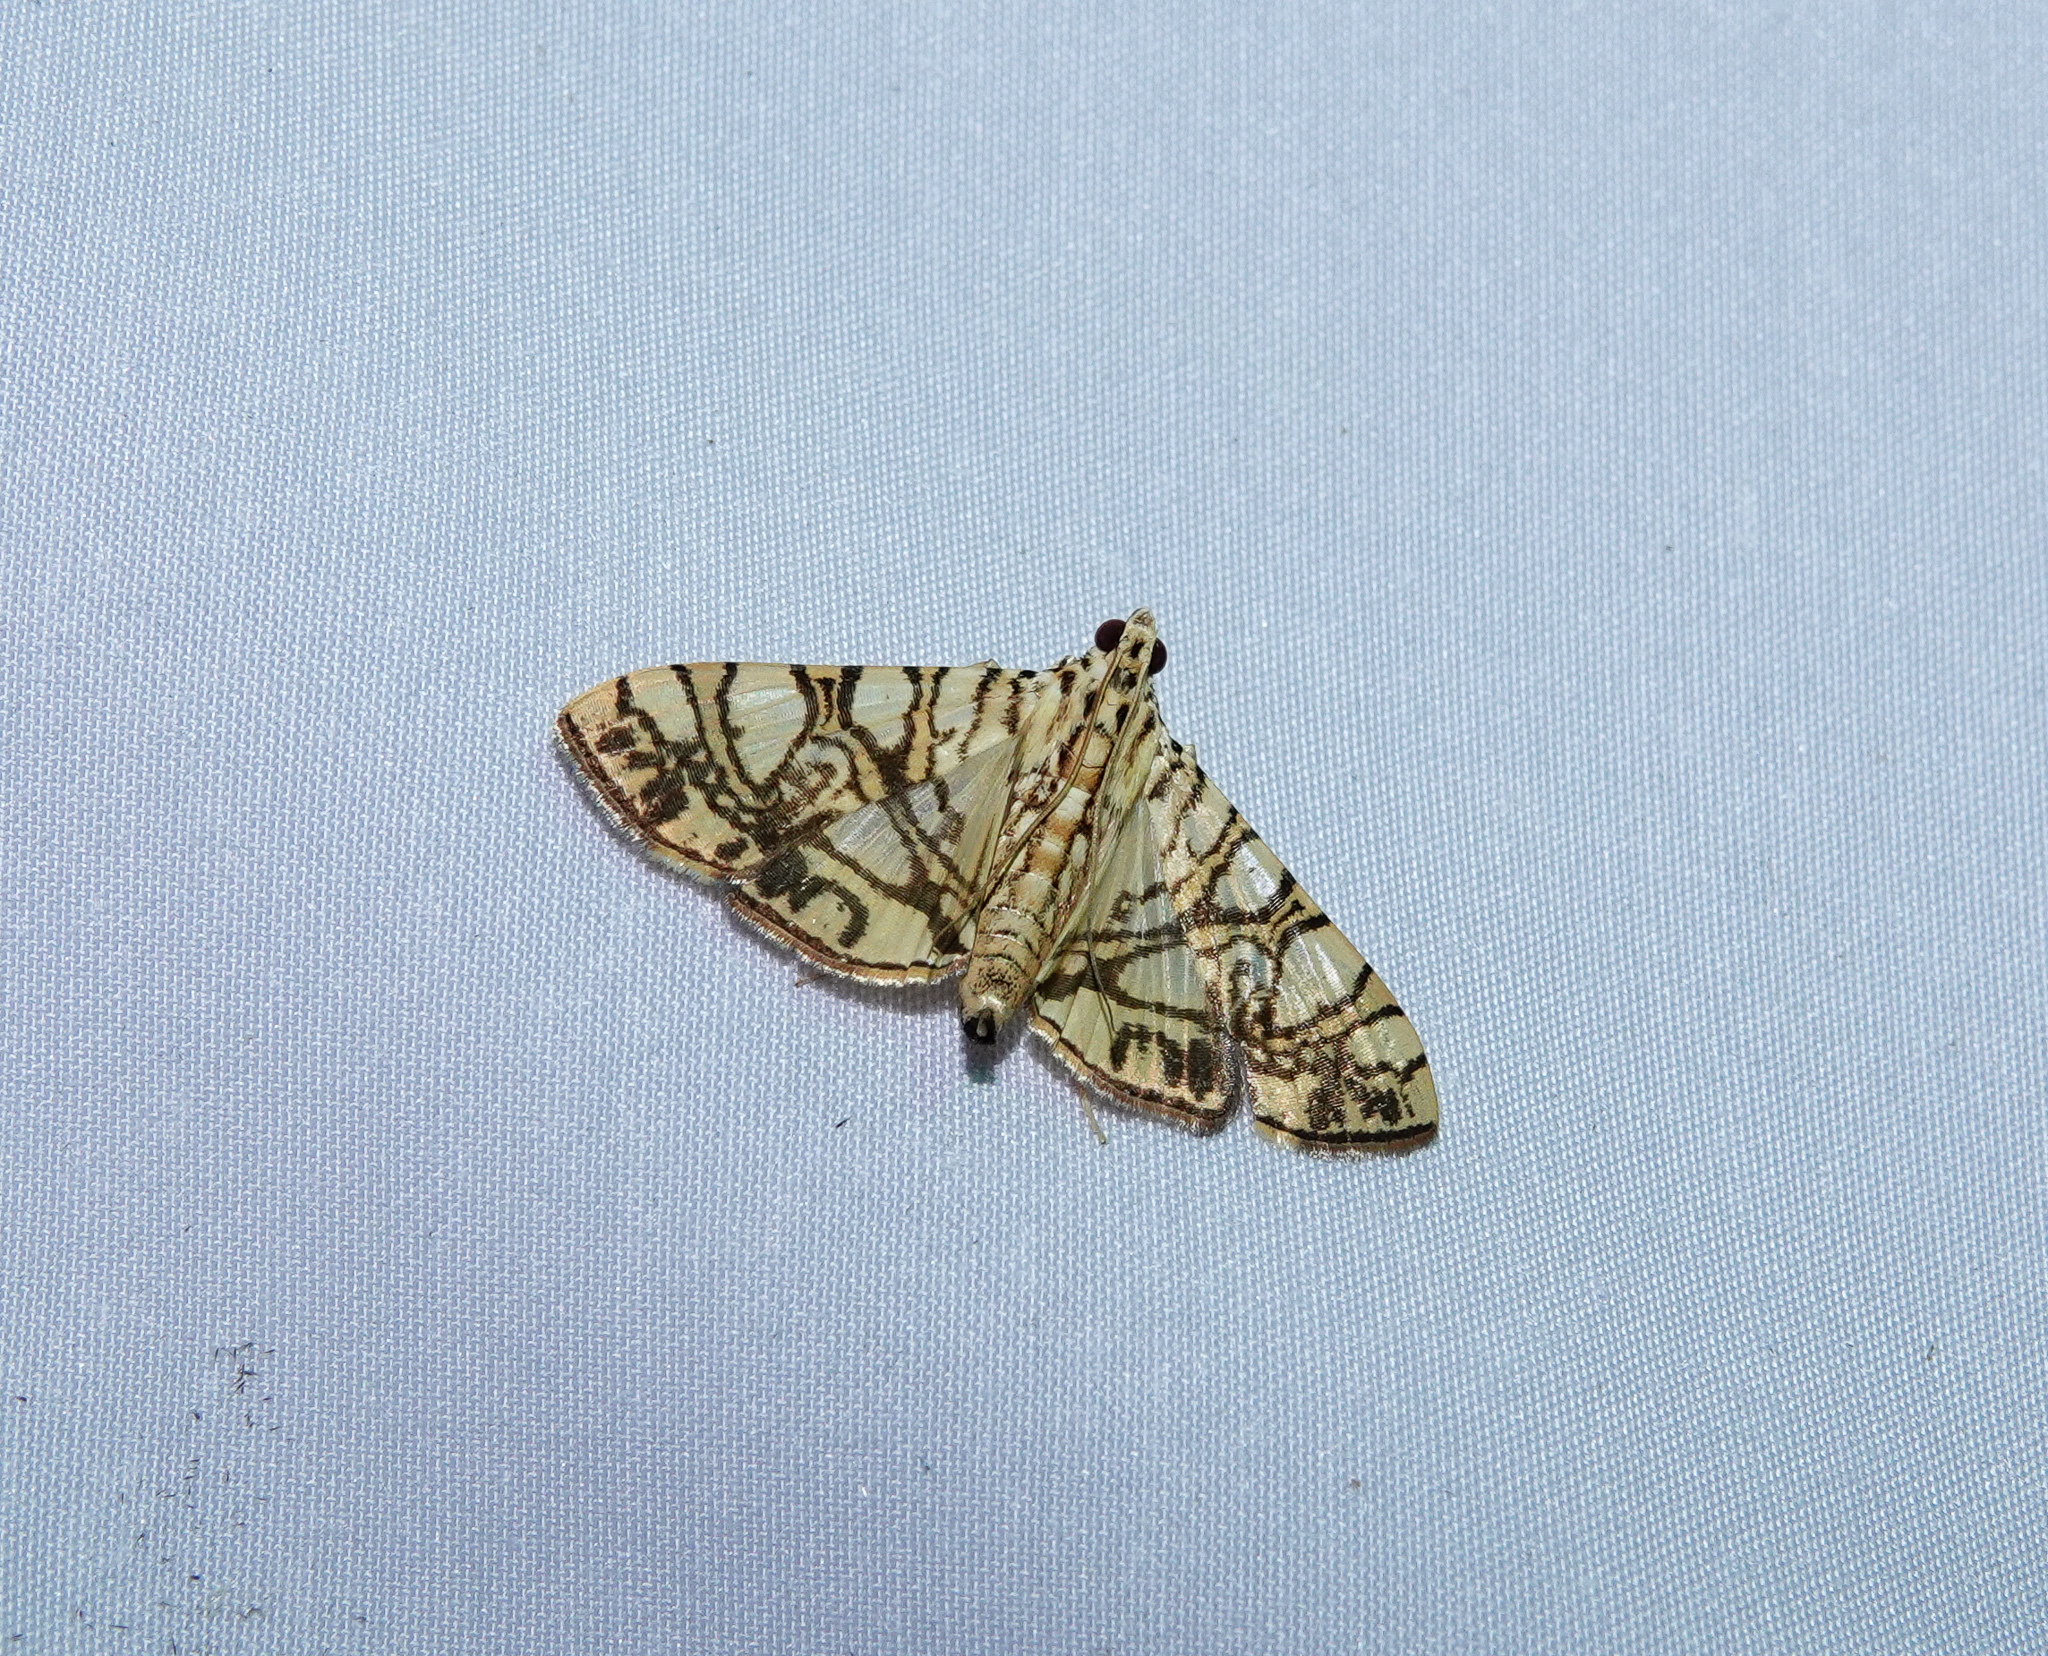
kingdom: Animalia
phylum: Arthropoda
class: Insecta
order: Lepidoptera
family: Crambidae
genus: Glyphodes
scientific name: Glyphodes caesalis
